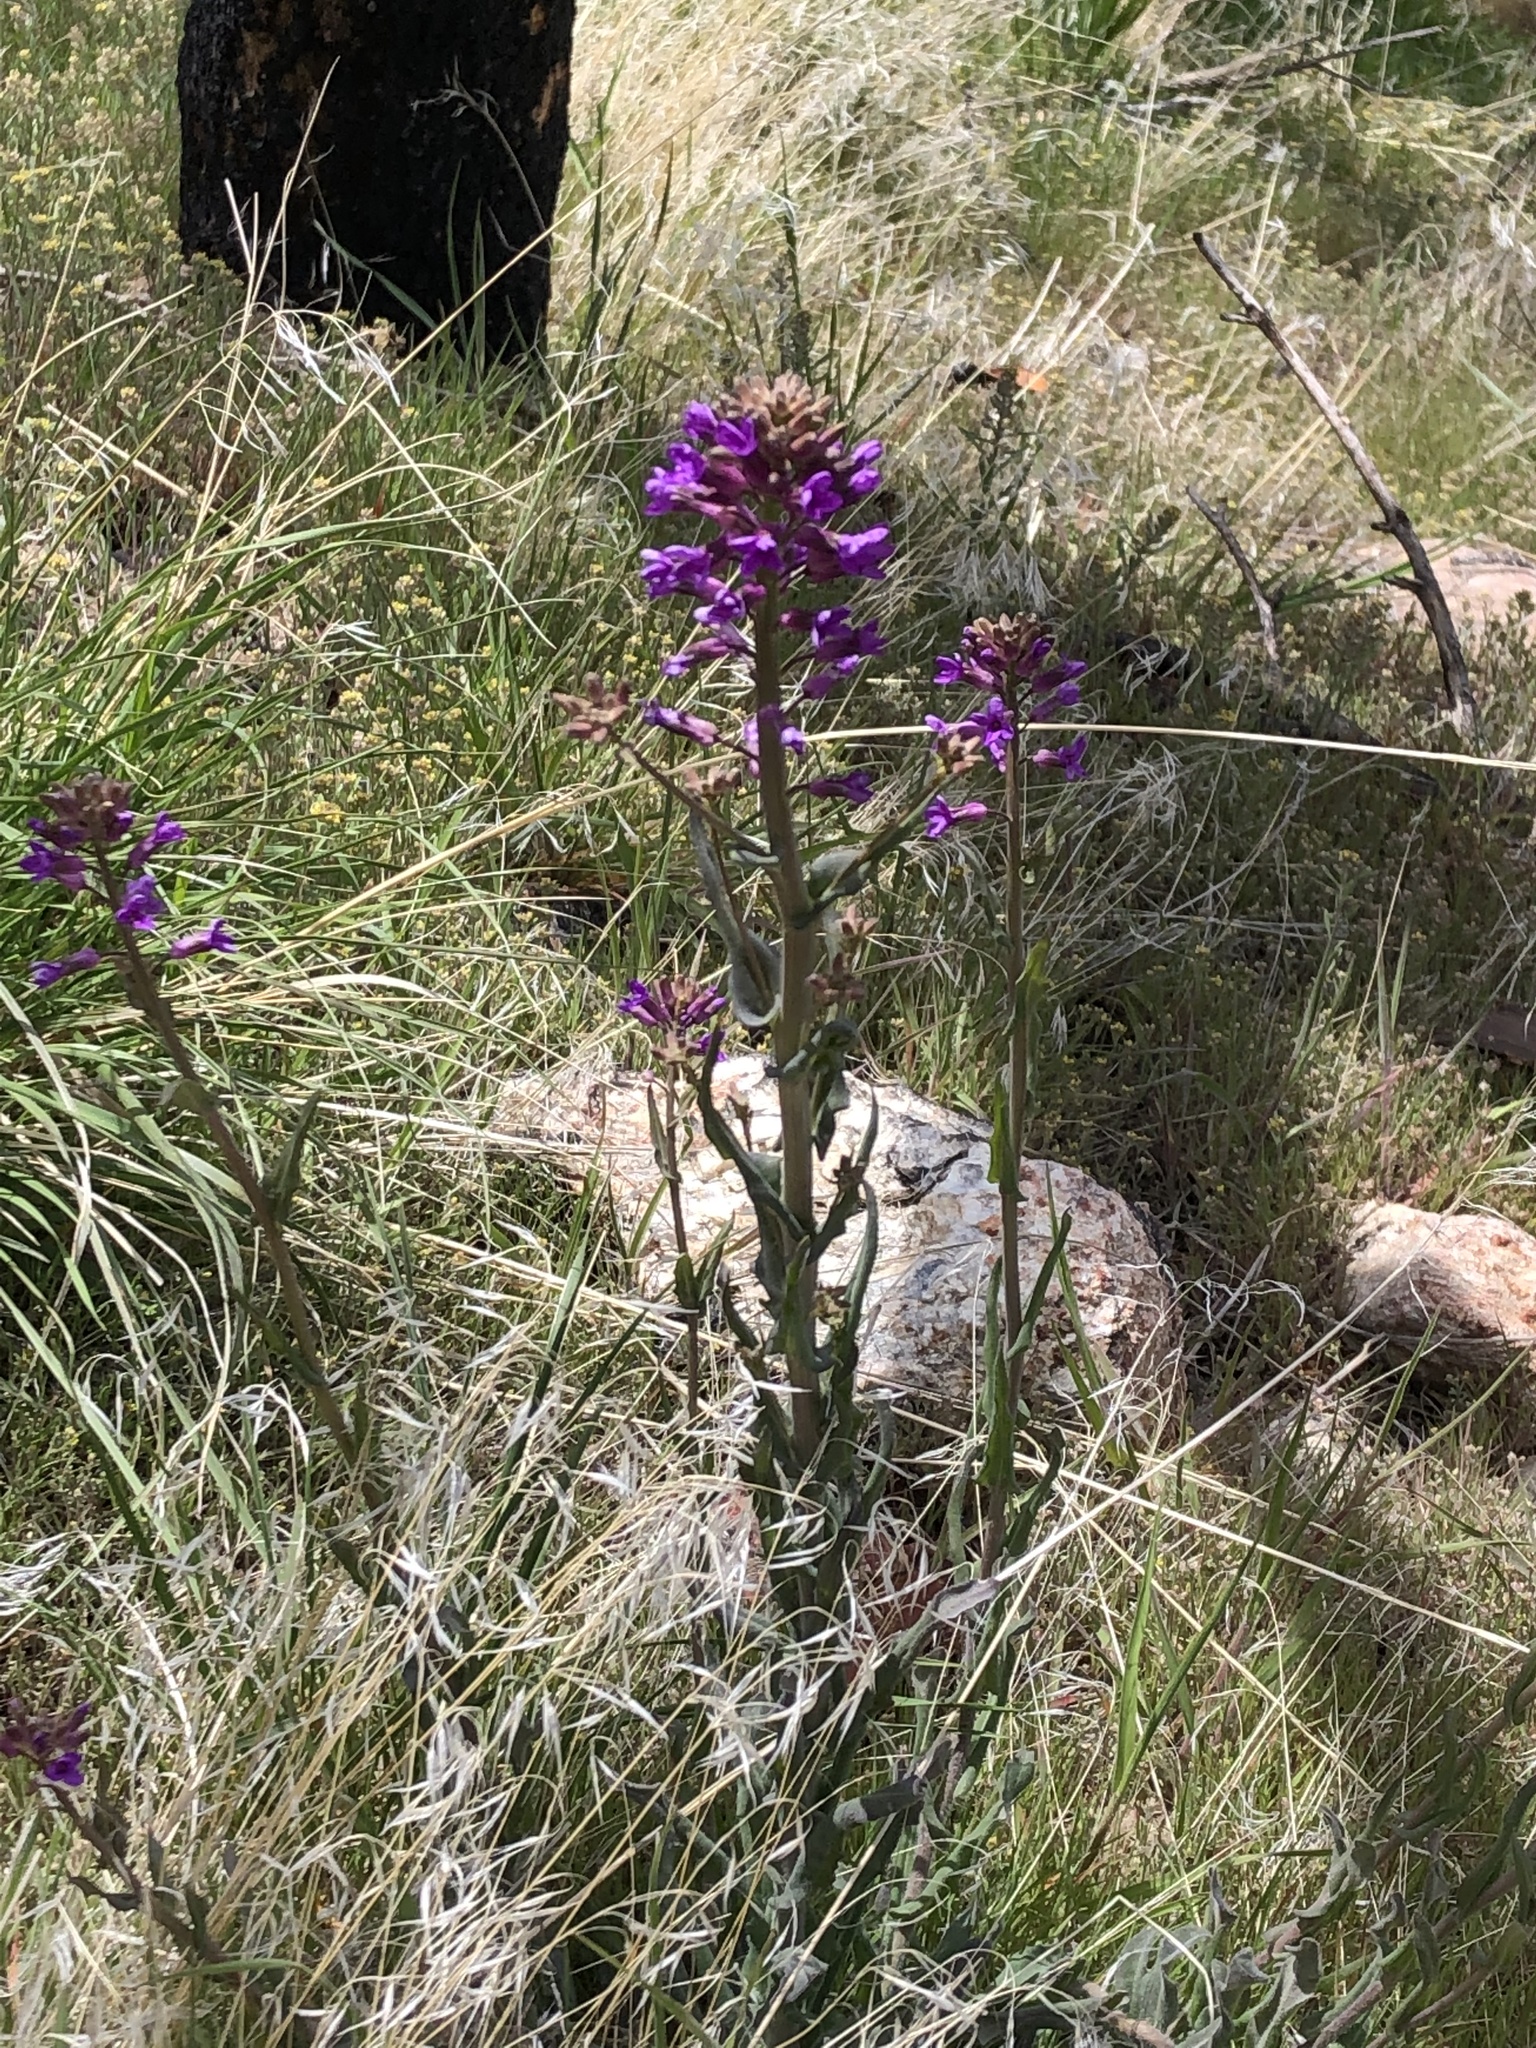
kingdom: Plantae
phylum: Tracheophyta
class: Magnoliopsida
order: Brassicales
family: Brassicaceae
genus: Phoenicaulis
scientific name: Phoenicaulis cheiranthoides
